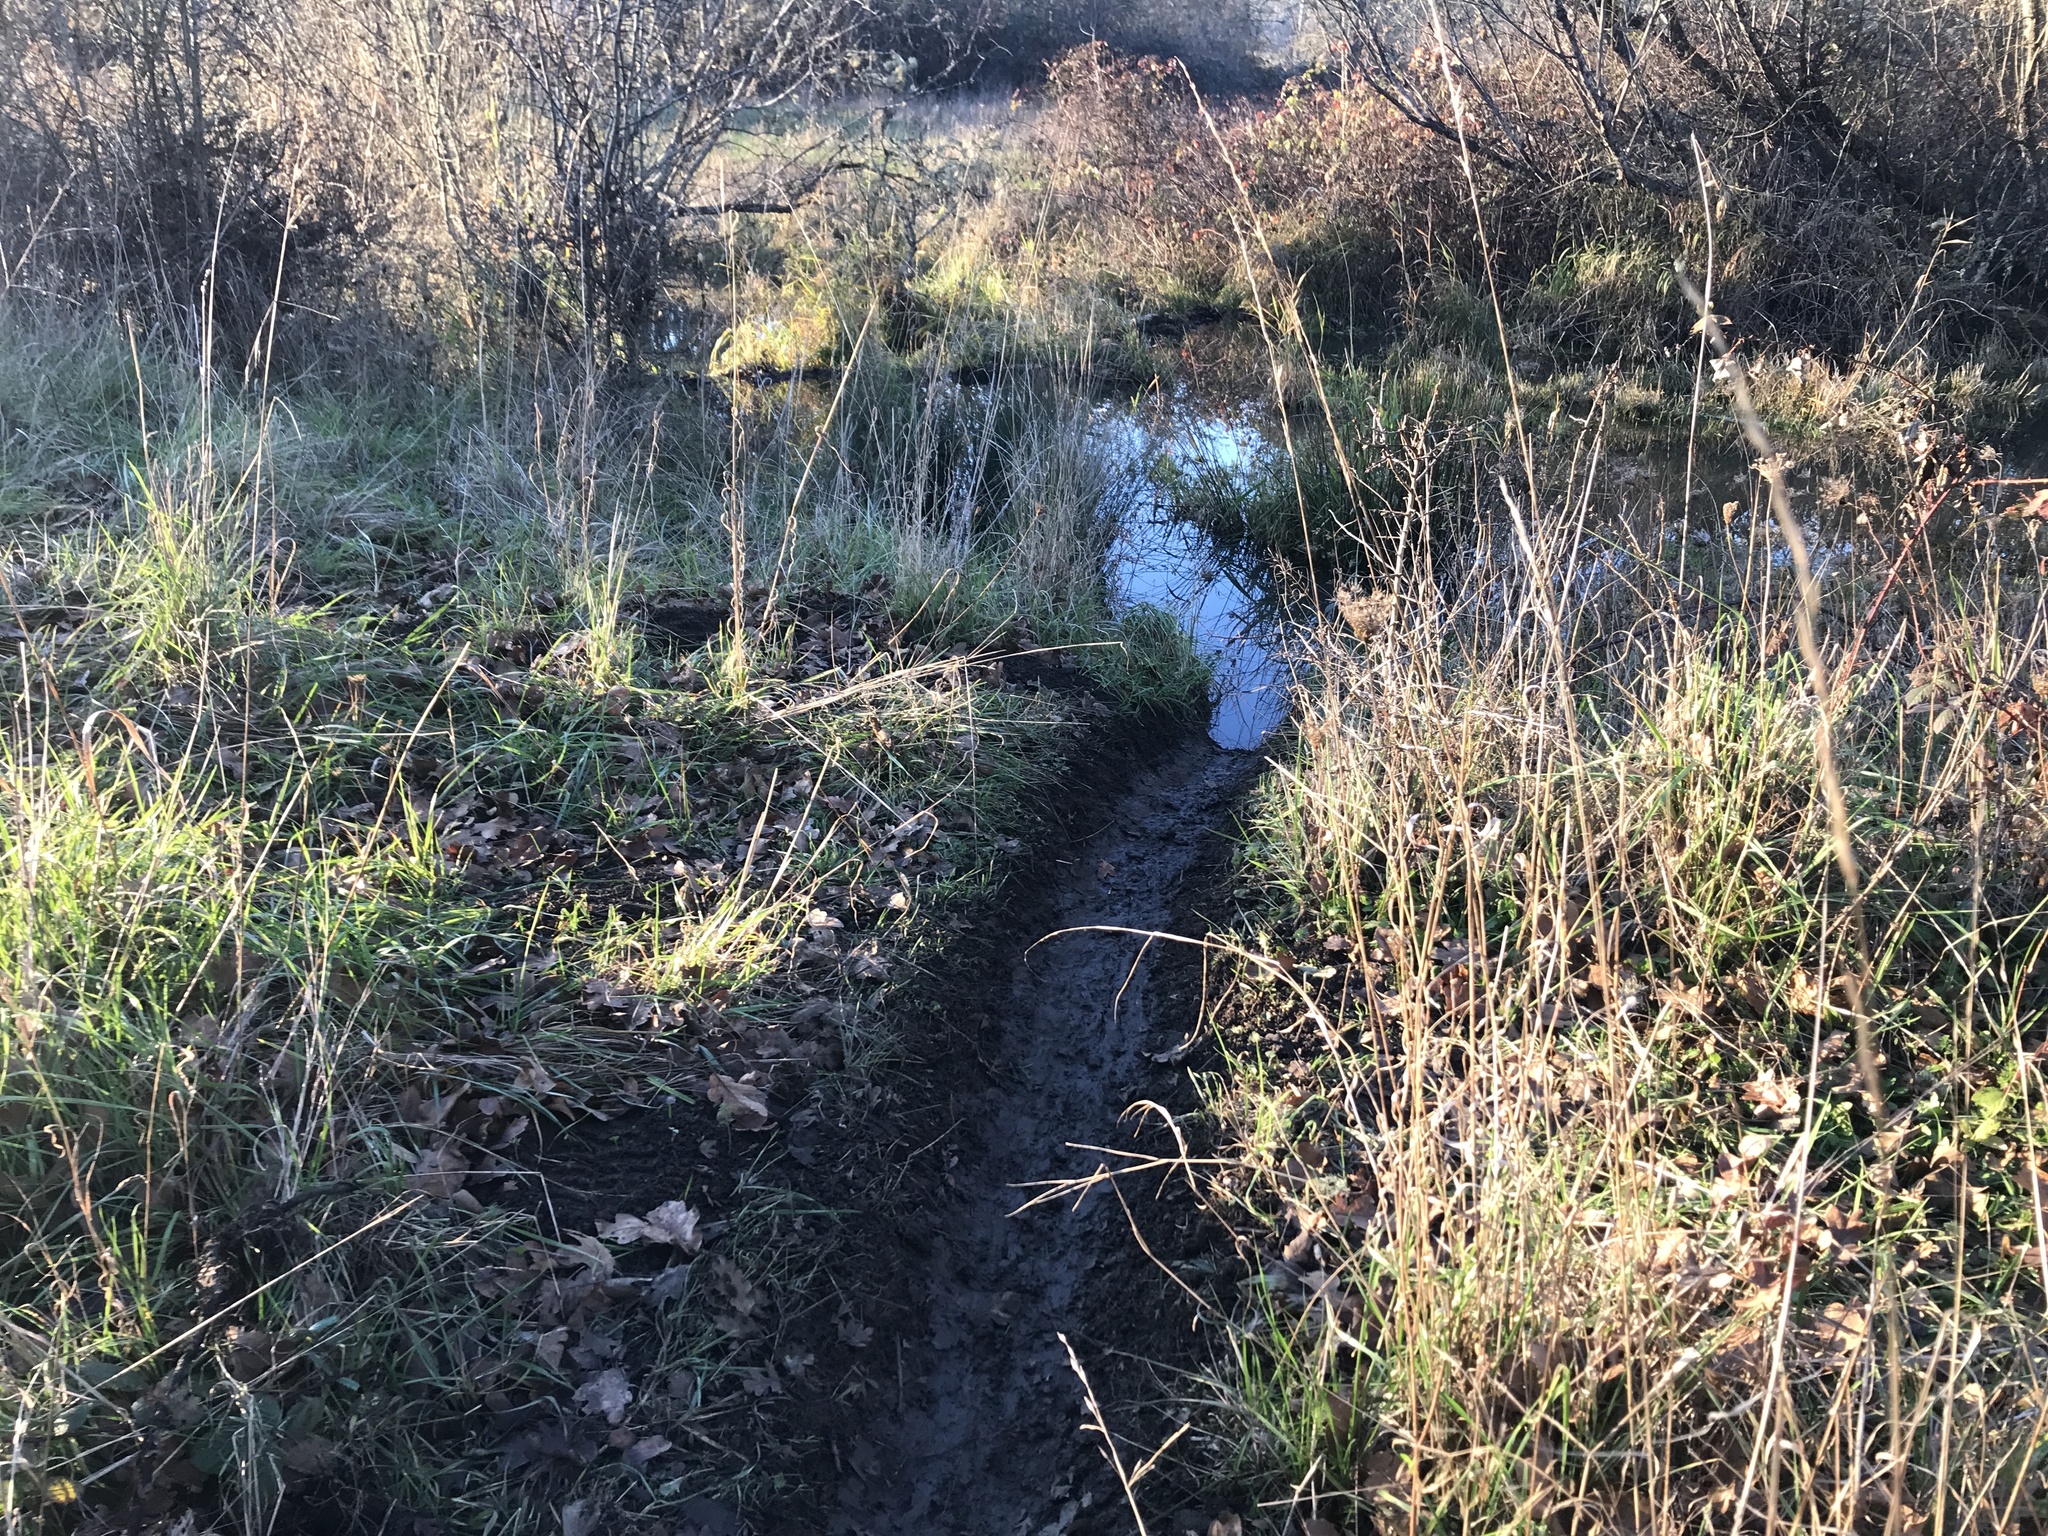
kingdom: Animalia
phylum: Chordata
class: Mammalia
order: Rodentia
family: Castoridae
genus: Castor
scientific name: Castor canadensis
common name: American beaver
